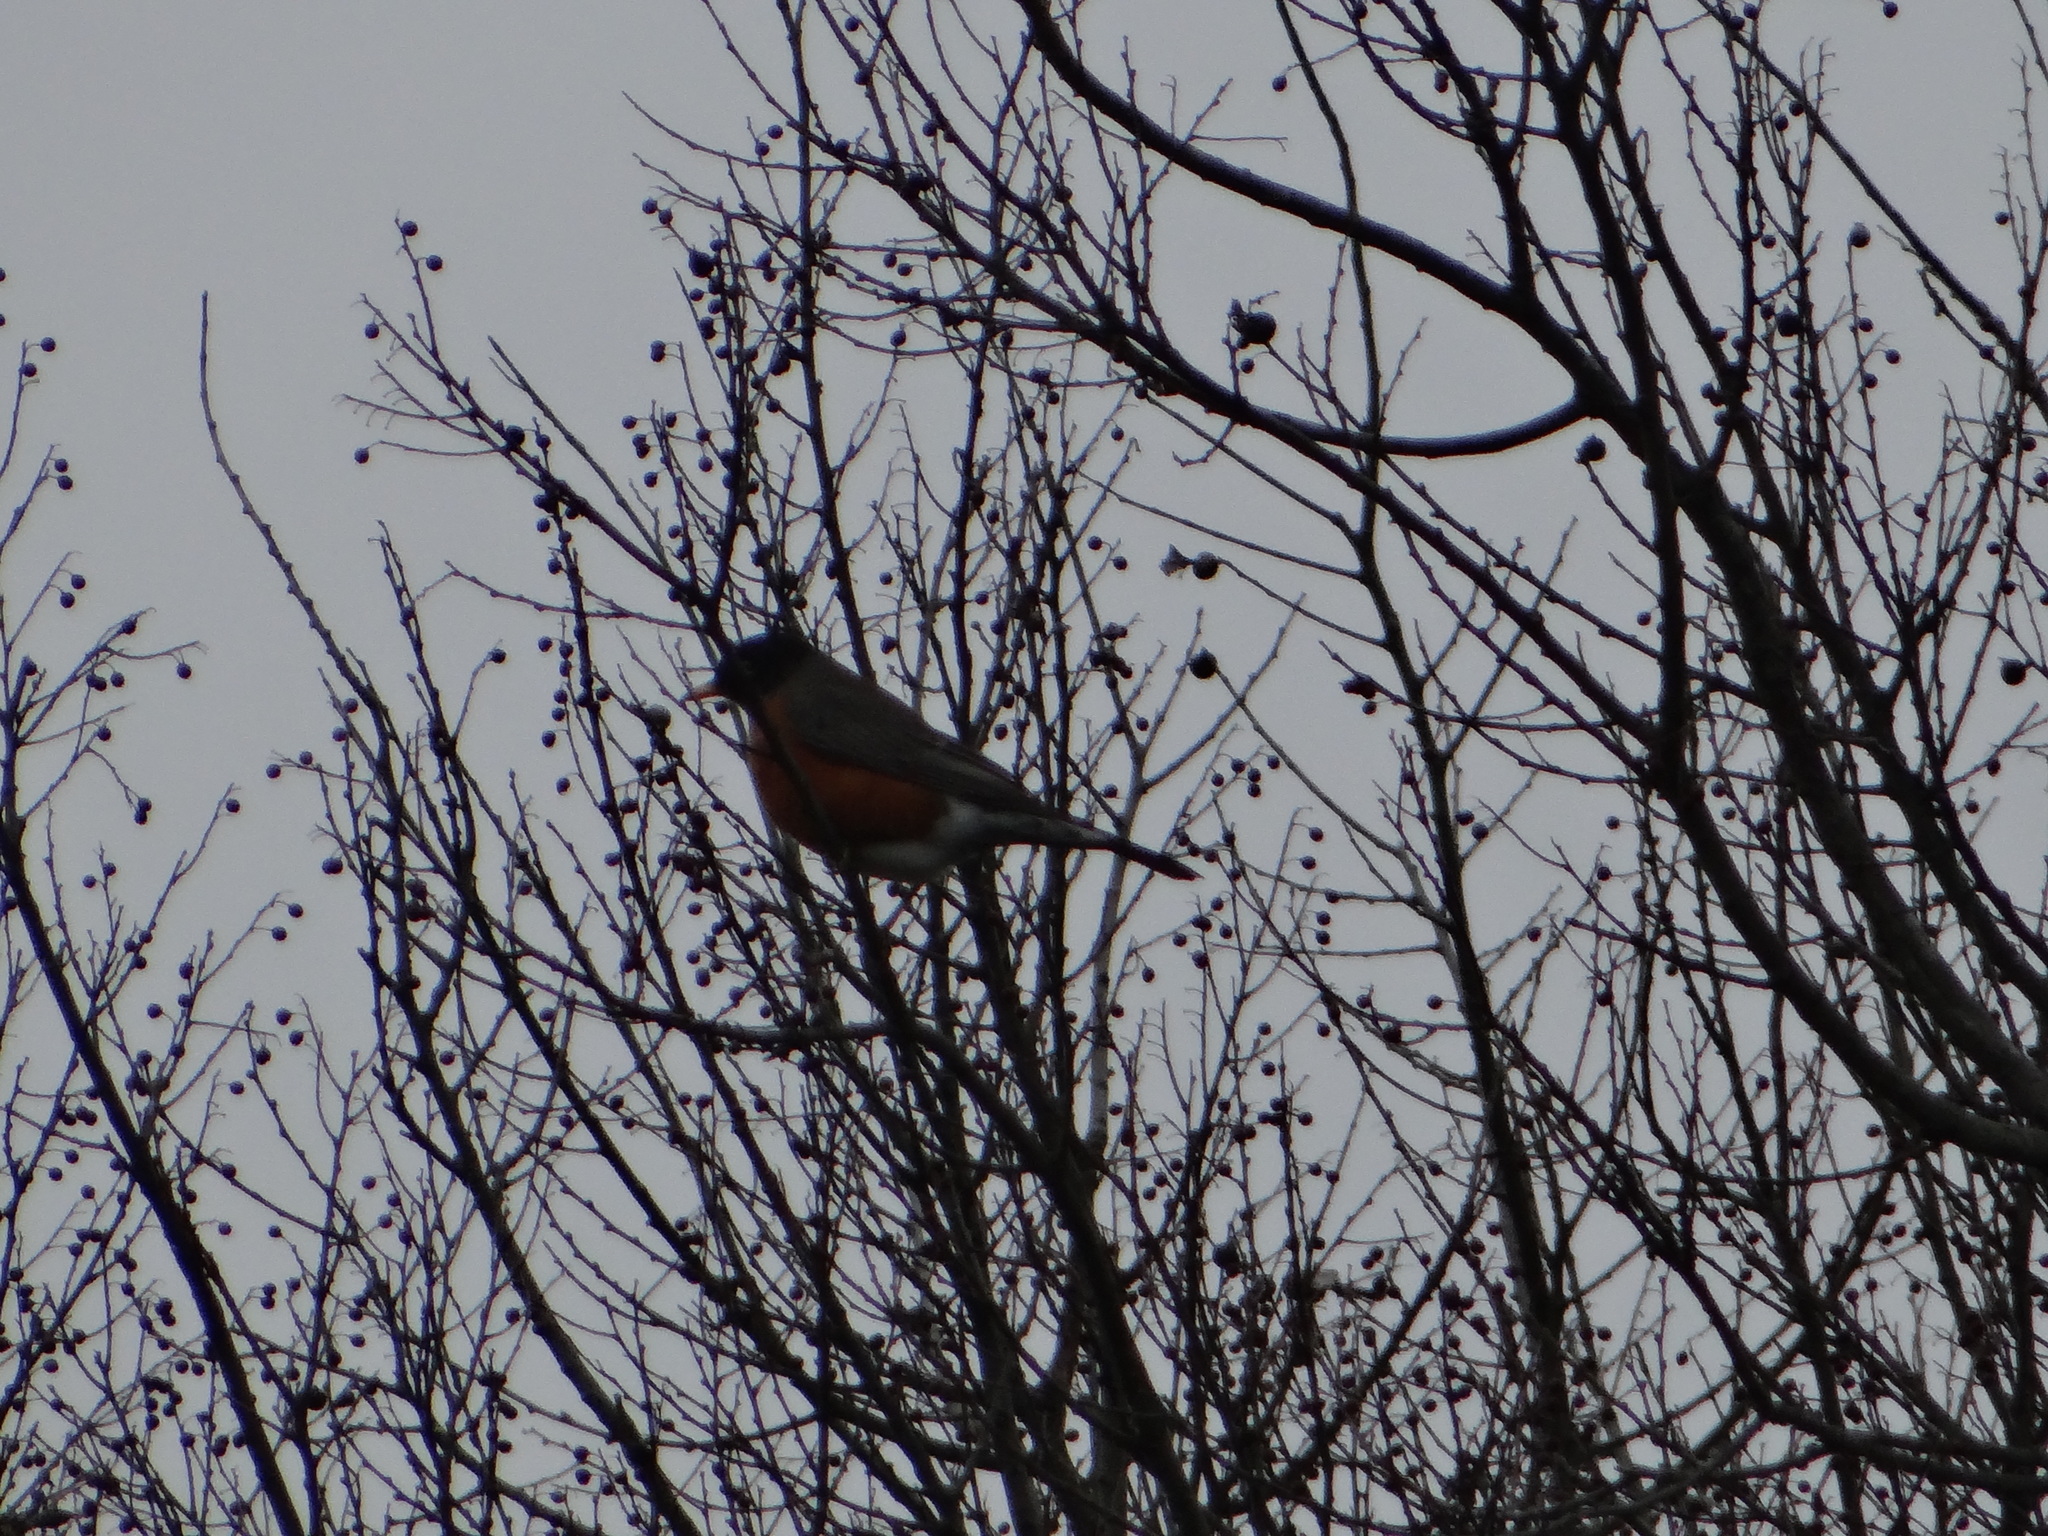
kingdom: Animalia
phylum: Chordata
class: Aves
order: Passeriformes
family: Turdidae
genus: Turdus
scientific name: Turdus migratorius
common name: American robin
